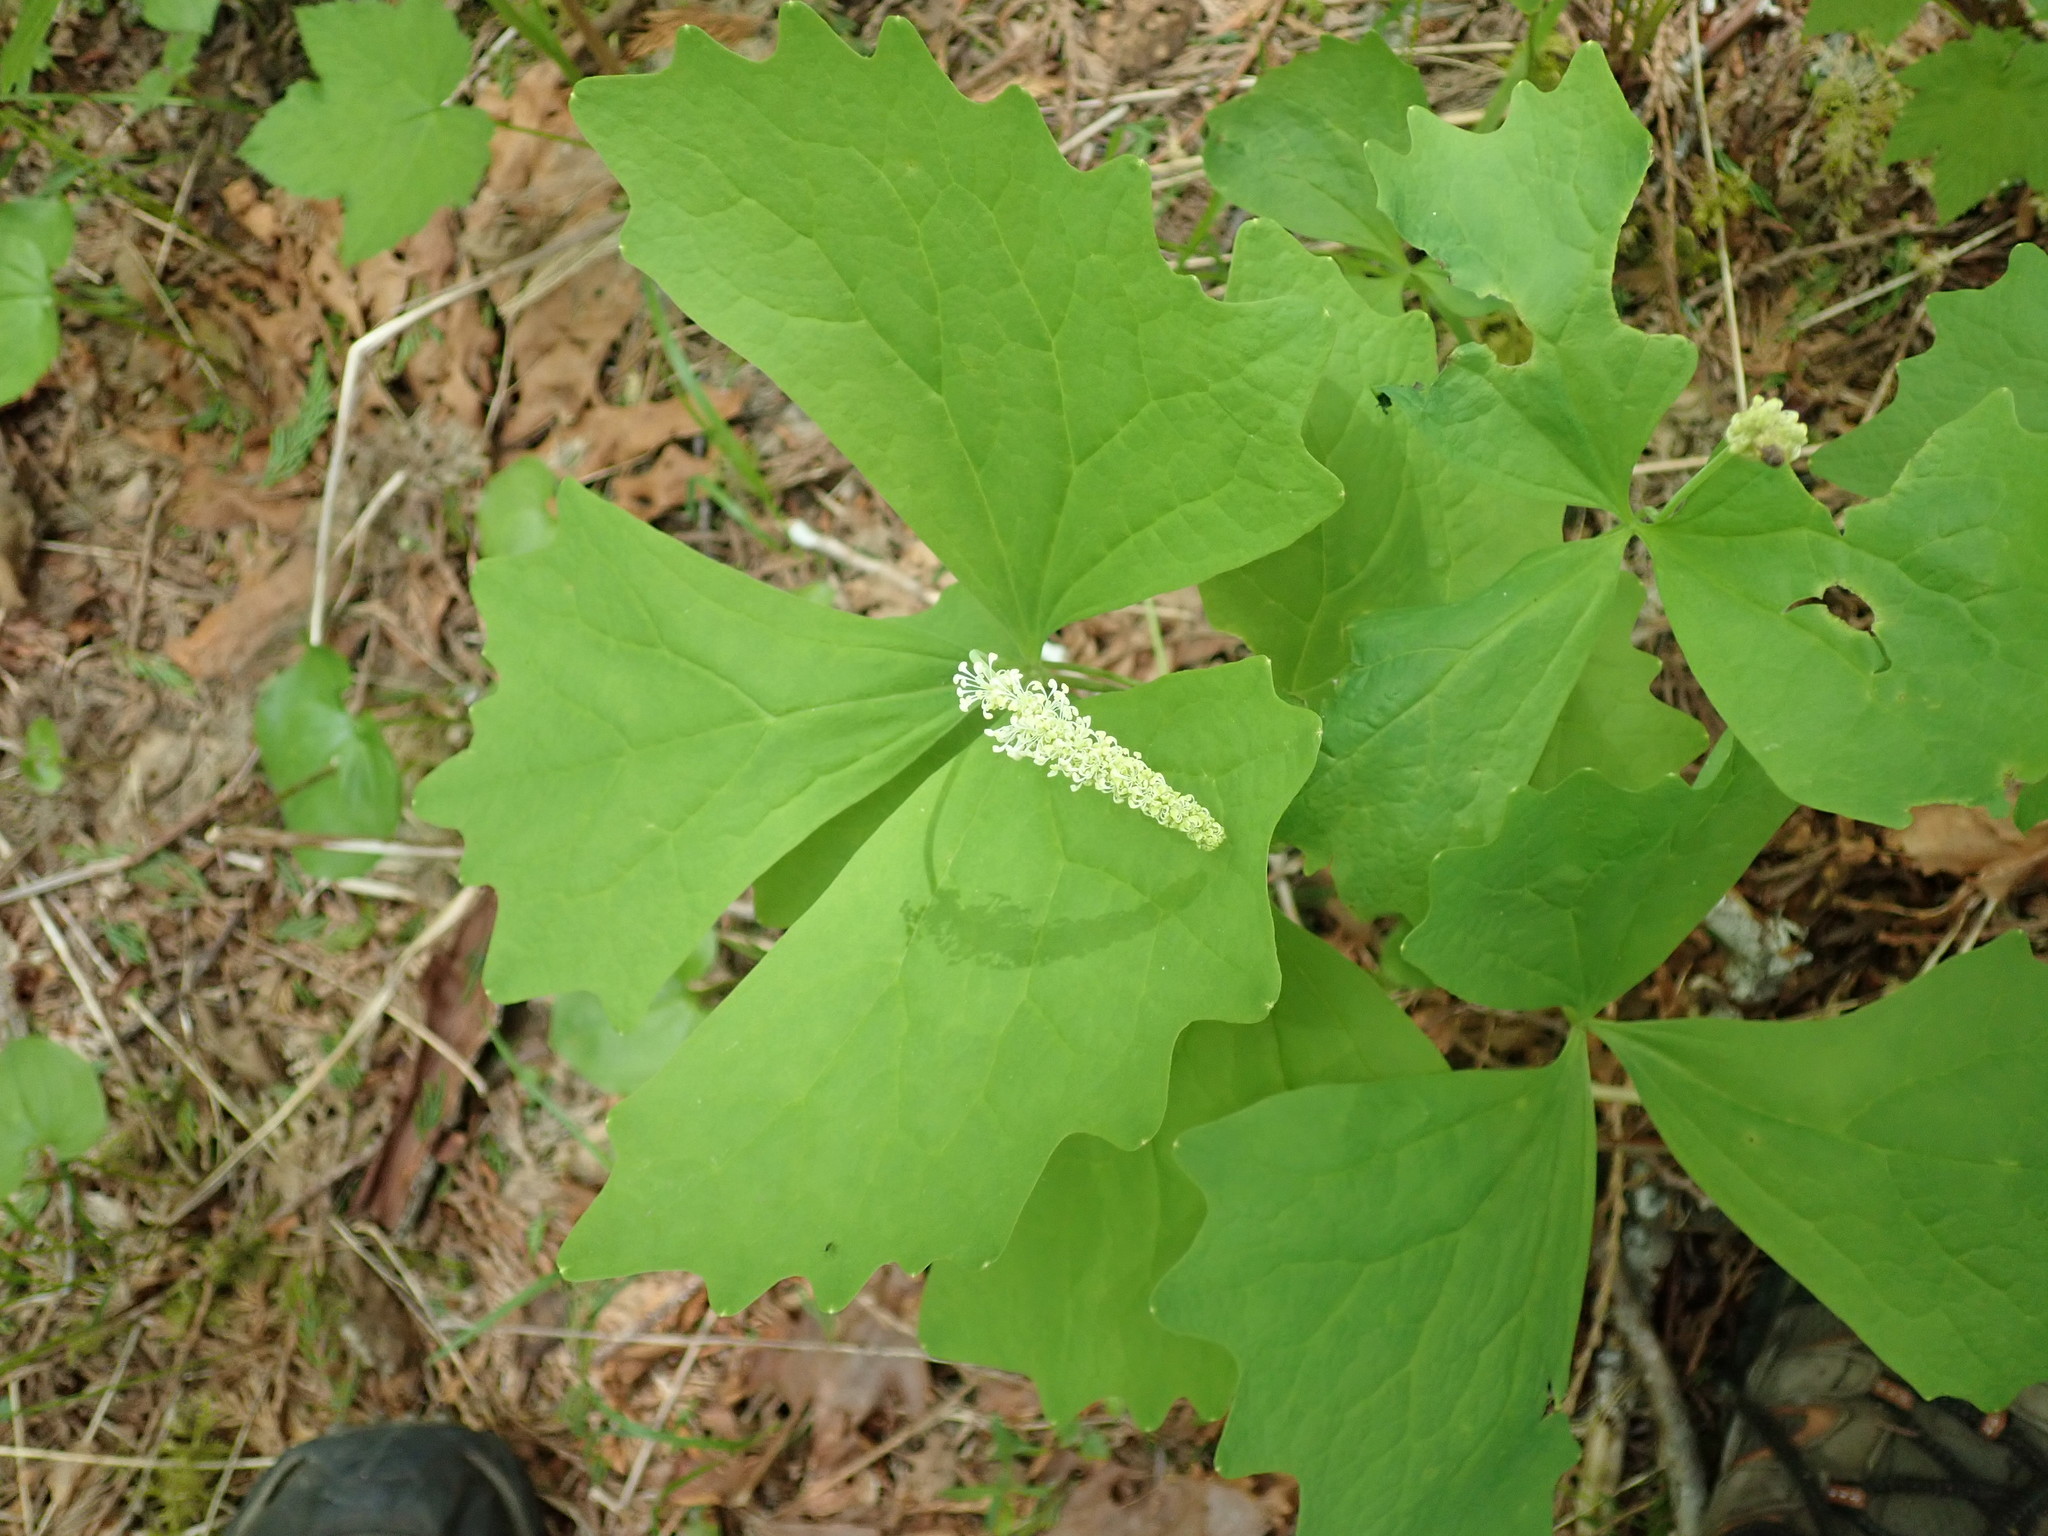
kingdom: Plantae
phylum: Tracheophyta
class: Magnoliopsida
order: Ranunculales
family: Berberidaceae
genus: Achlys
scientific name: Achlys triphylla
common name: Vanilla-leaf
